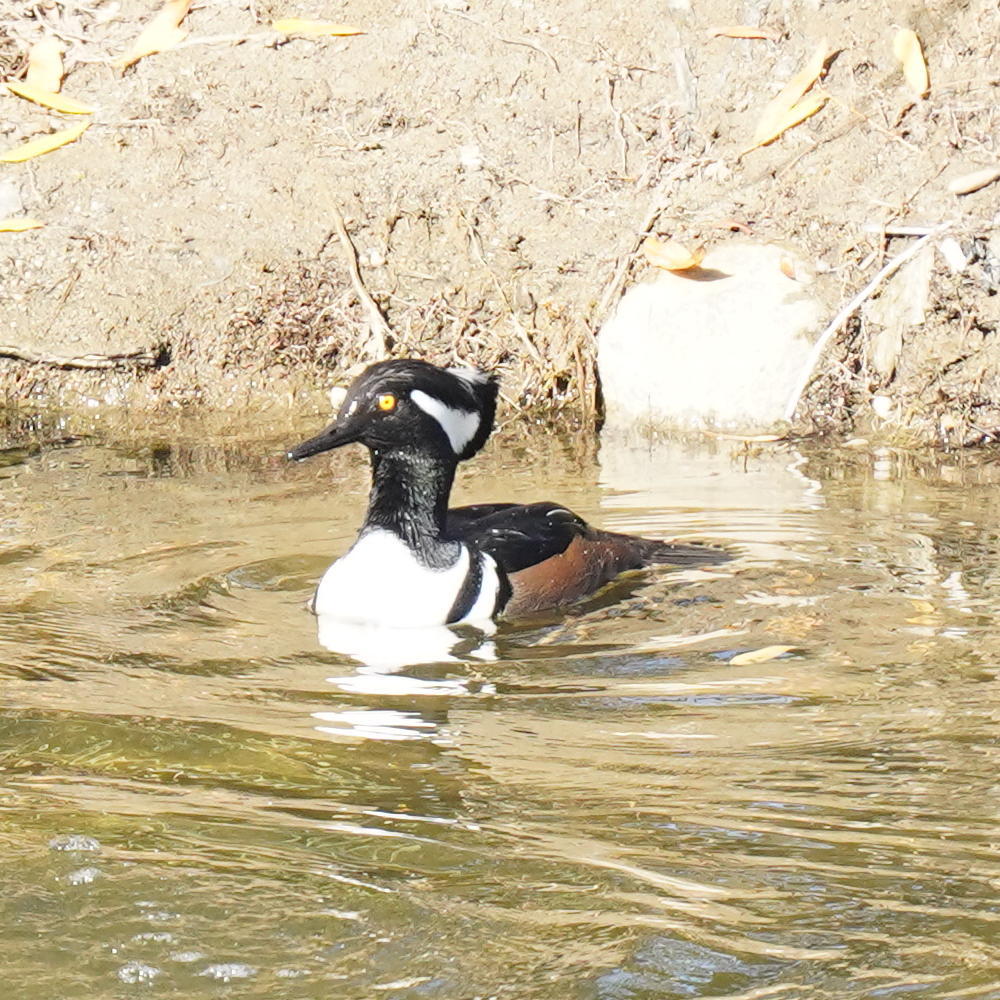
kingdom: Animalia
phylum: Chordata
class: Aves
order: Anseriformes
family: Anatidae
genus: Lophodytes
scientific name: Lophodytes cucullatus
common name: Hooded merganser
